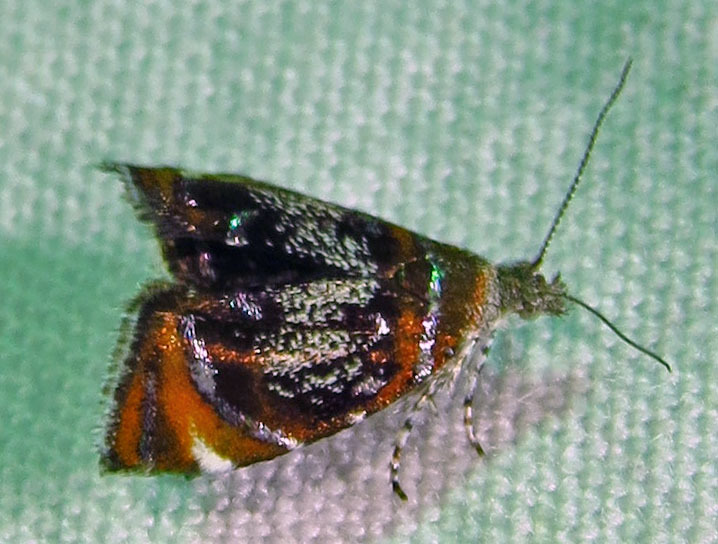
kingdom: Animalia
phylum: Arthropoda
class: Insecta
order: Lepidoptera
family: Choreutidae
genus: Prochoreutis
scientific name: Prochoreutis inflatella
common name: Skullcap skeletonizer moth
